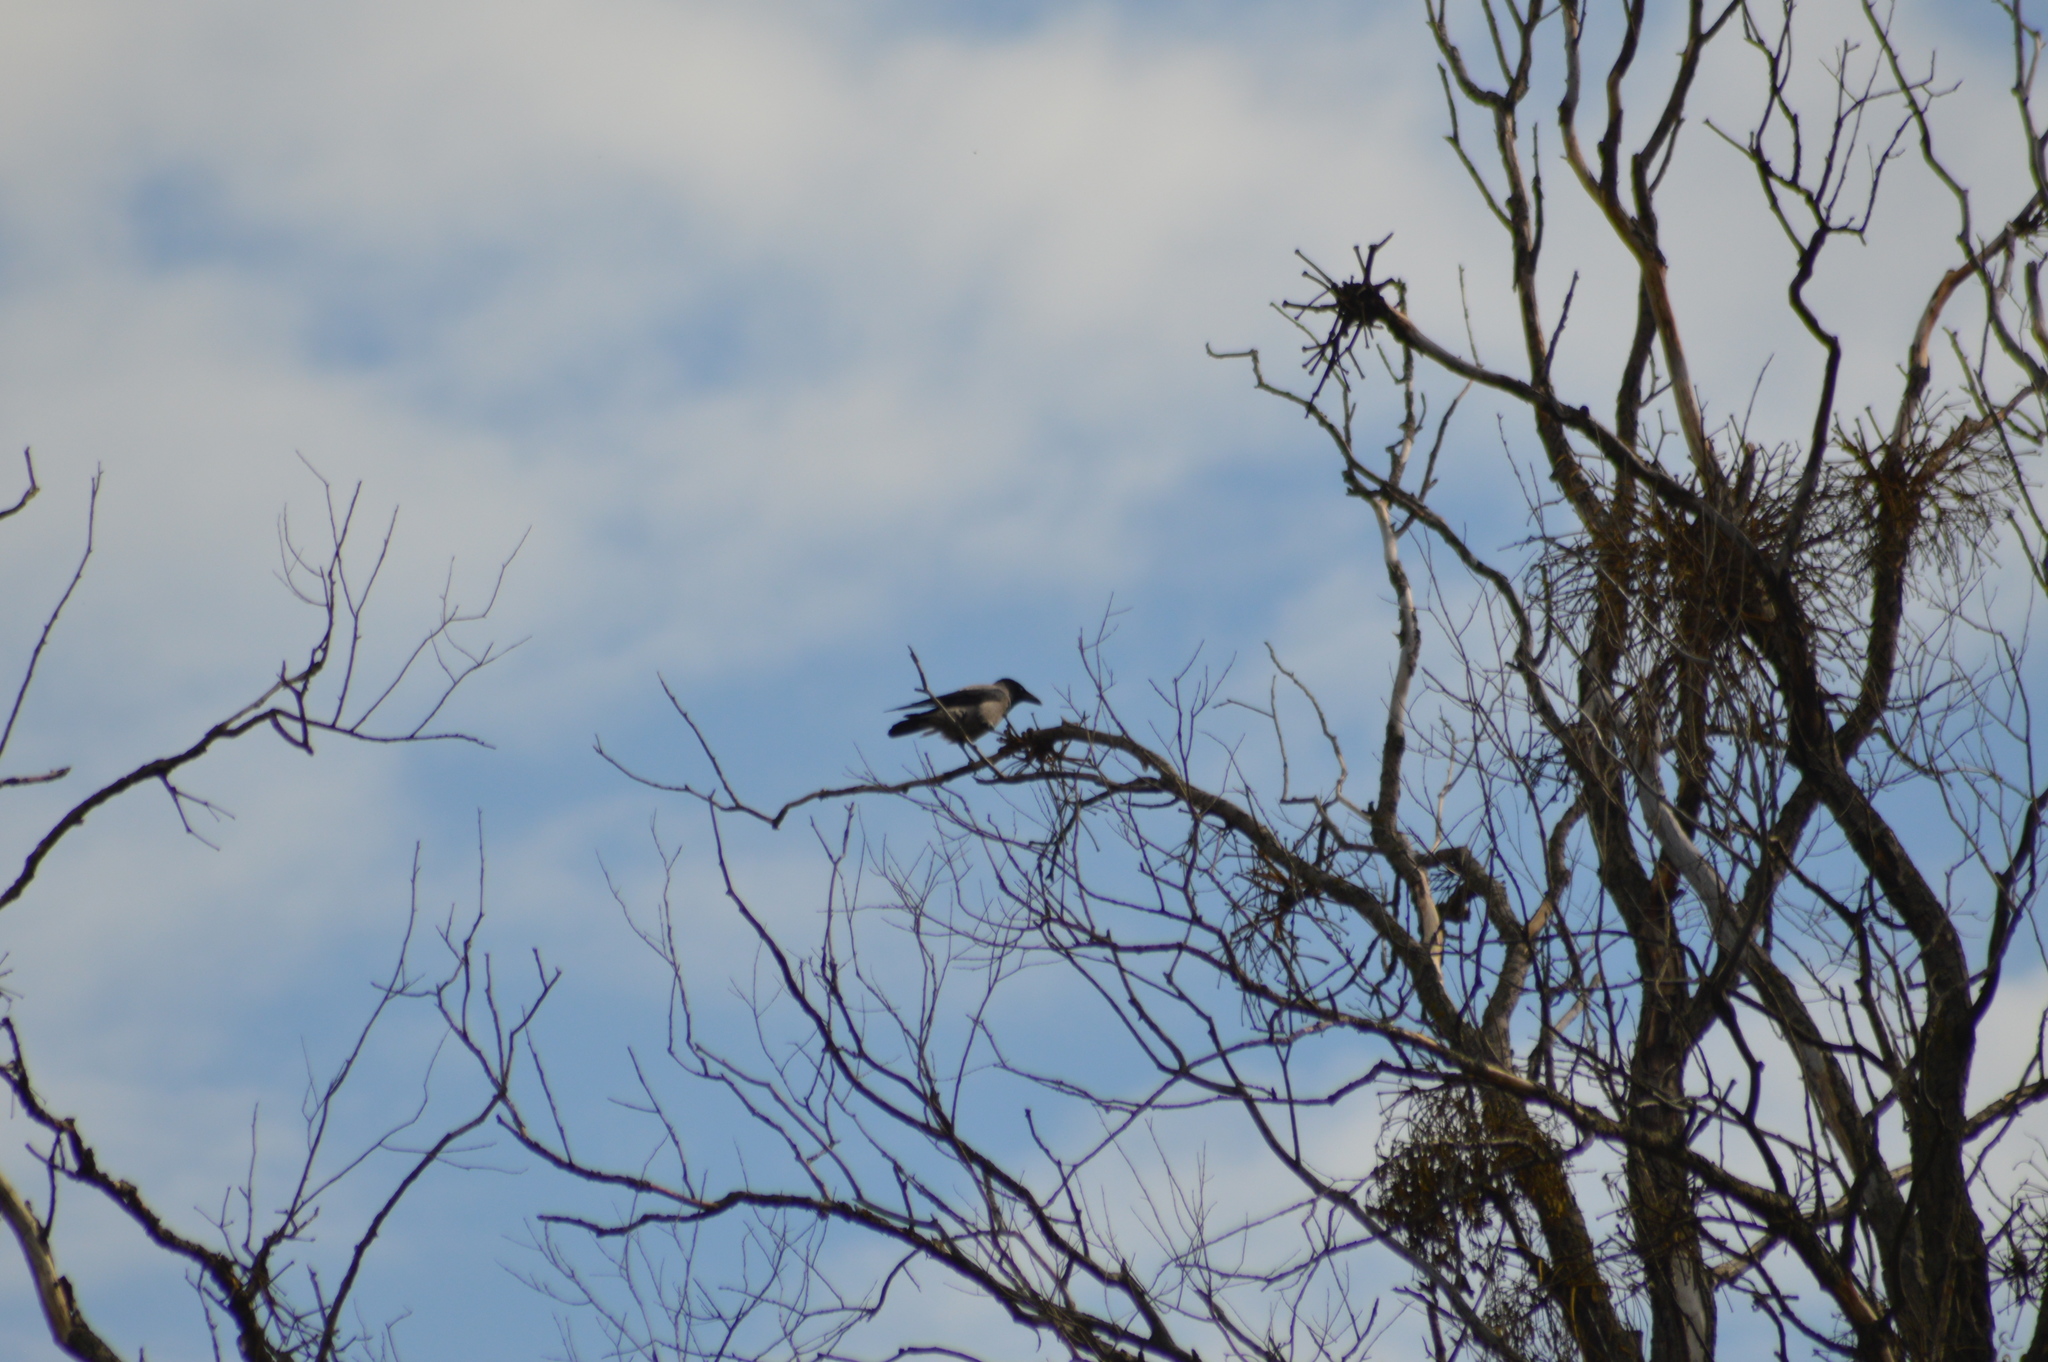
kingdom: Animalia
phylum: Chordata
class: Aves
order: Passeriformes
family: Corvidae
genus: Corvus
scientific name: Corvus cornix
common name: Hooded crow
